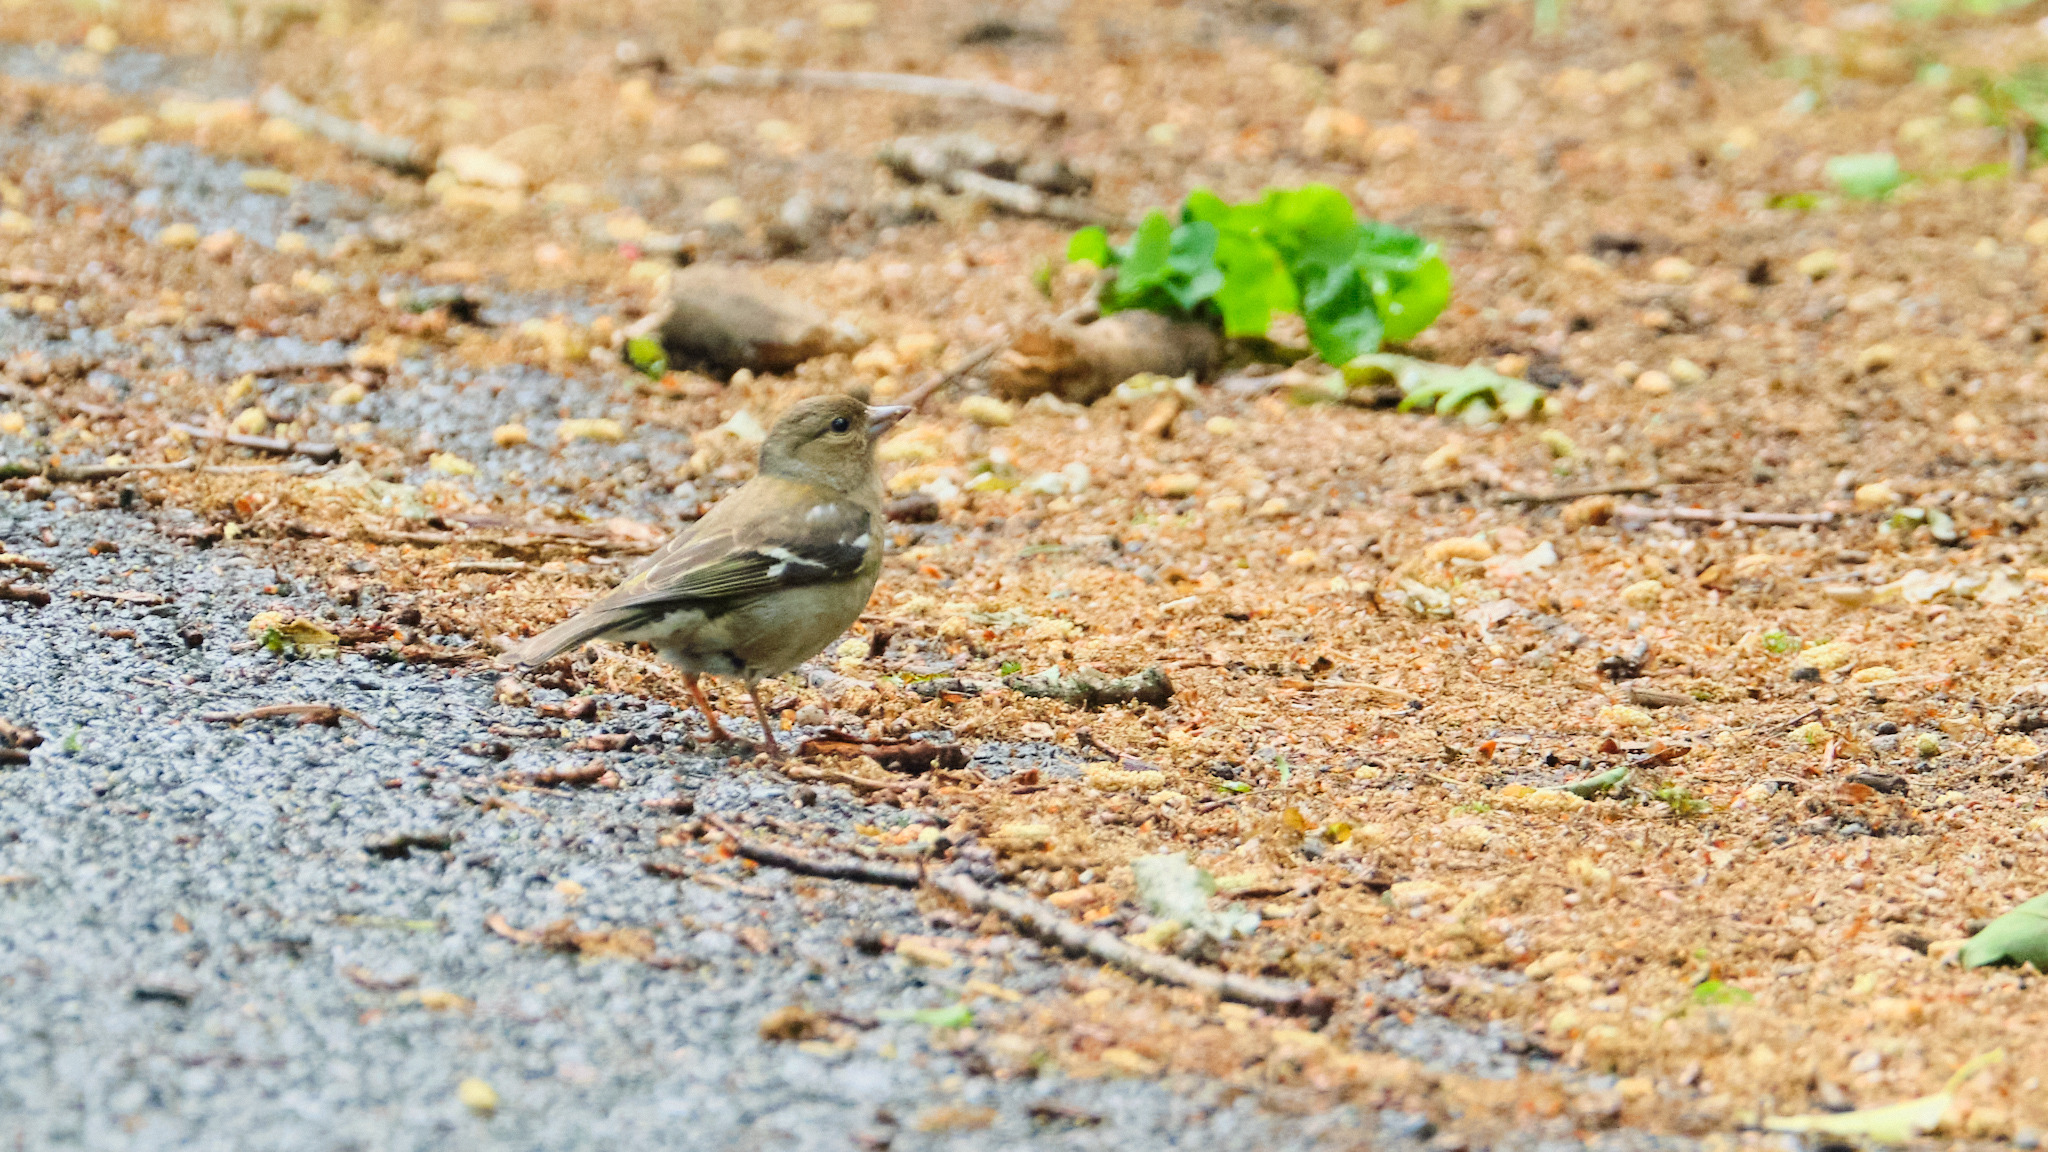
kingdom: Animalia
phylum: Chordata
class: Aves
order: Passeriformes
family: Fringillidae
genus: Fringilla
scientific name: Fringilla coelebs
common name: Common chaffinch
